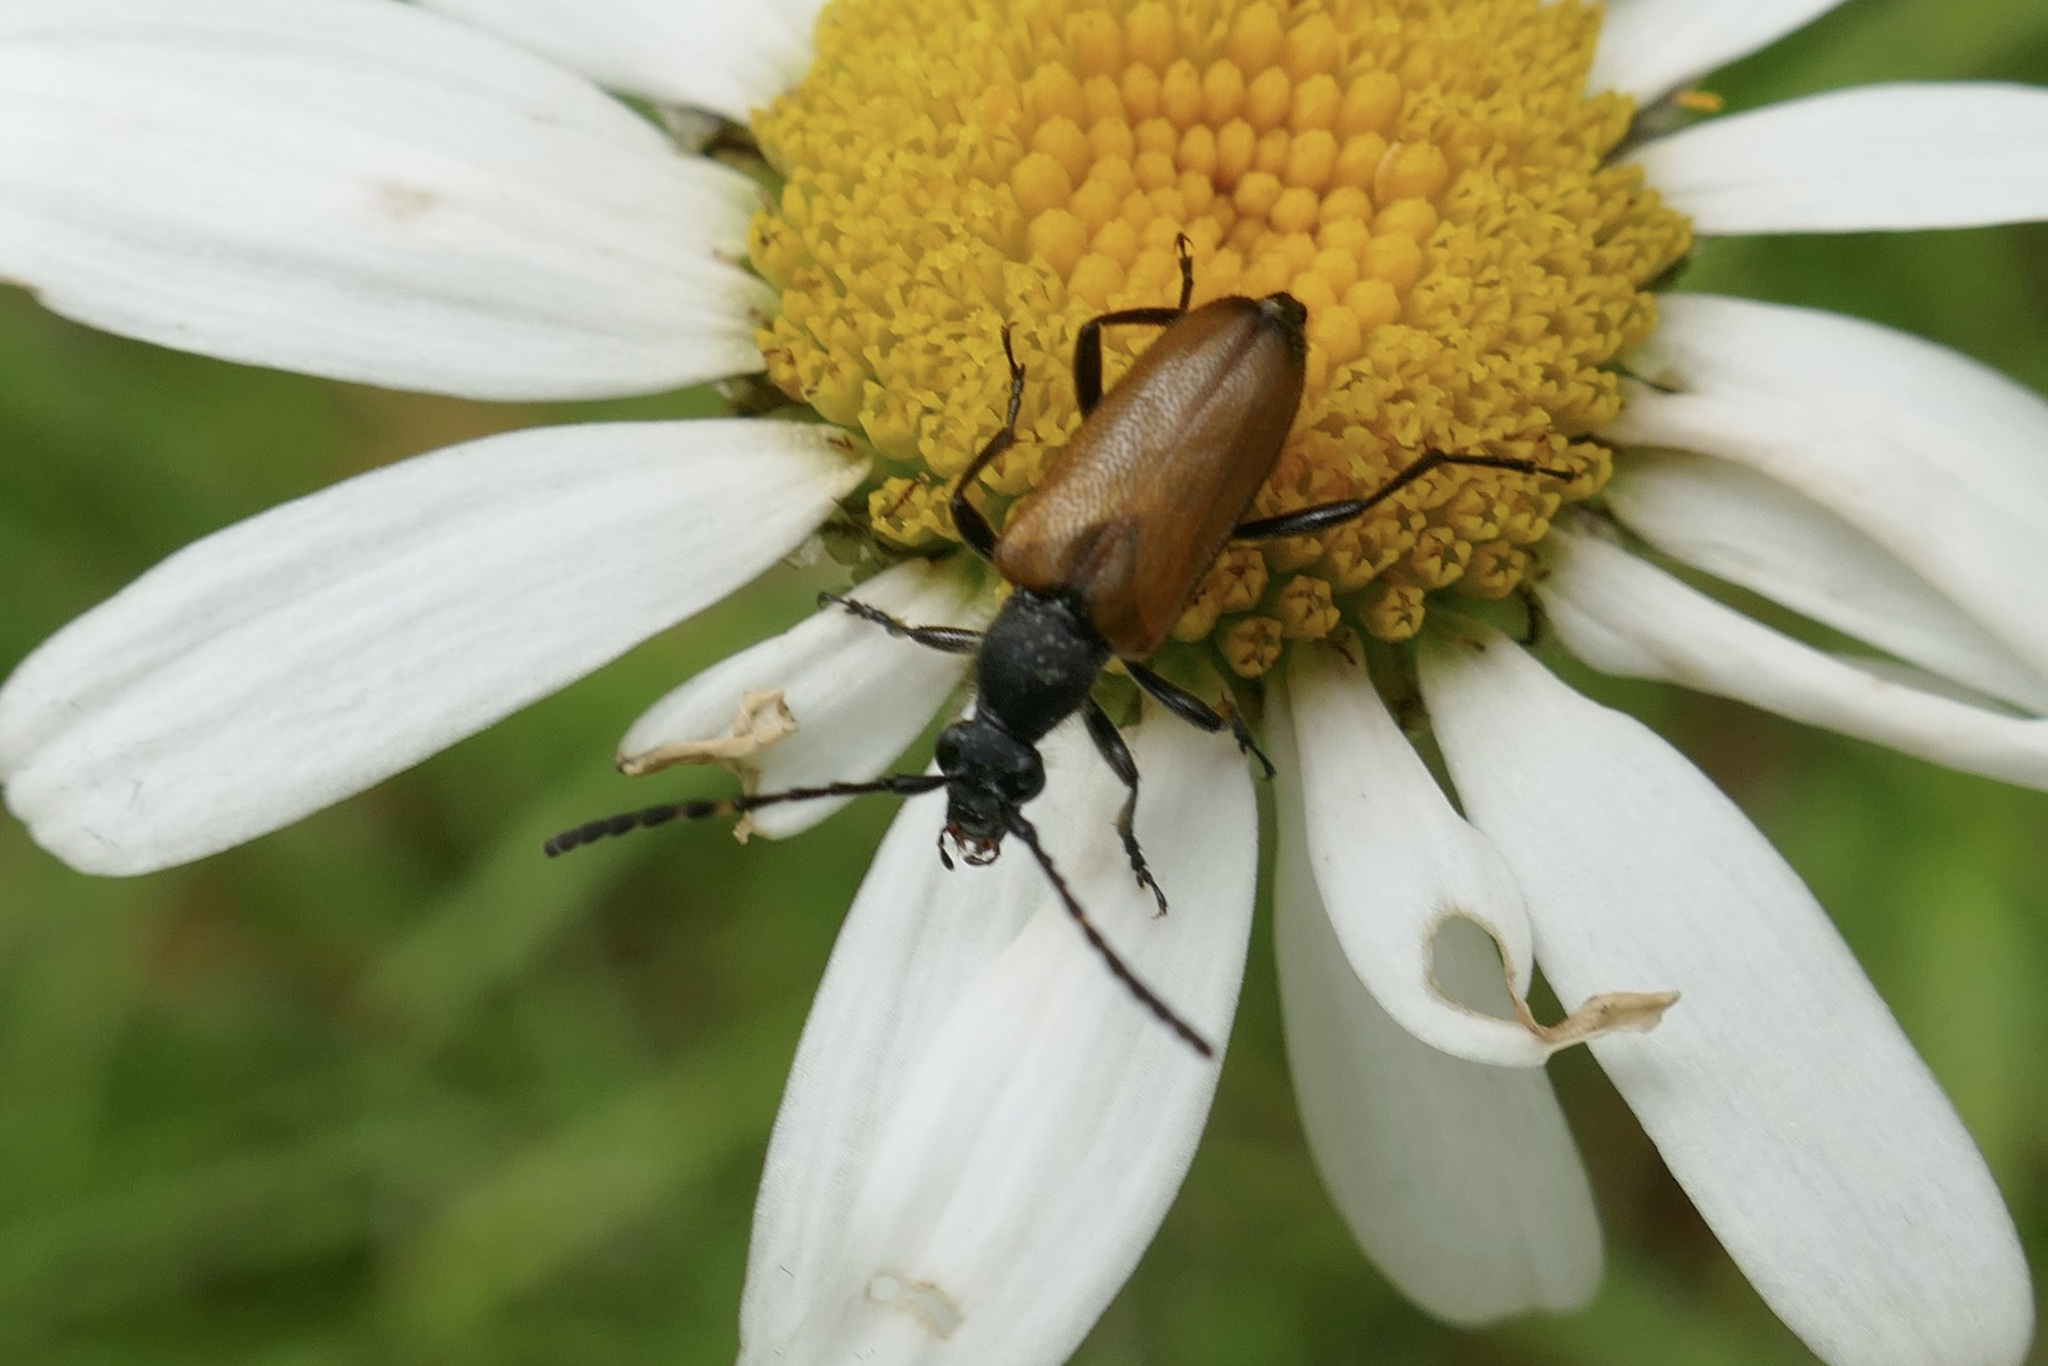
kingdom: Animalia
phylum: Arthropoda
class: Insecta
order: Coleoptera
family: Cerambycidae
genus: Paracorymbia
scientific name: Paracorymbia maculicornis
